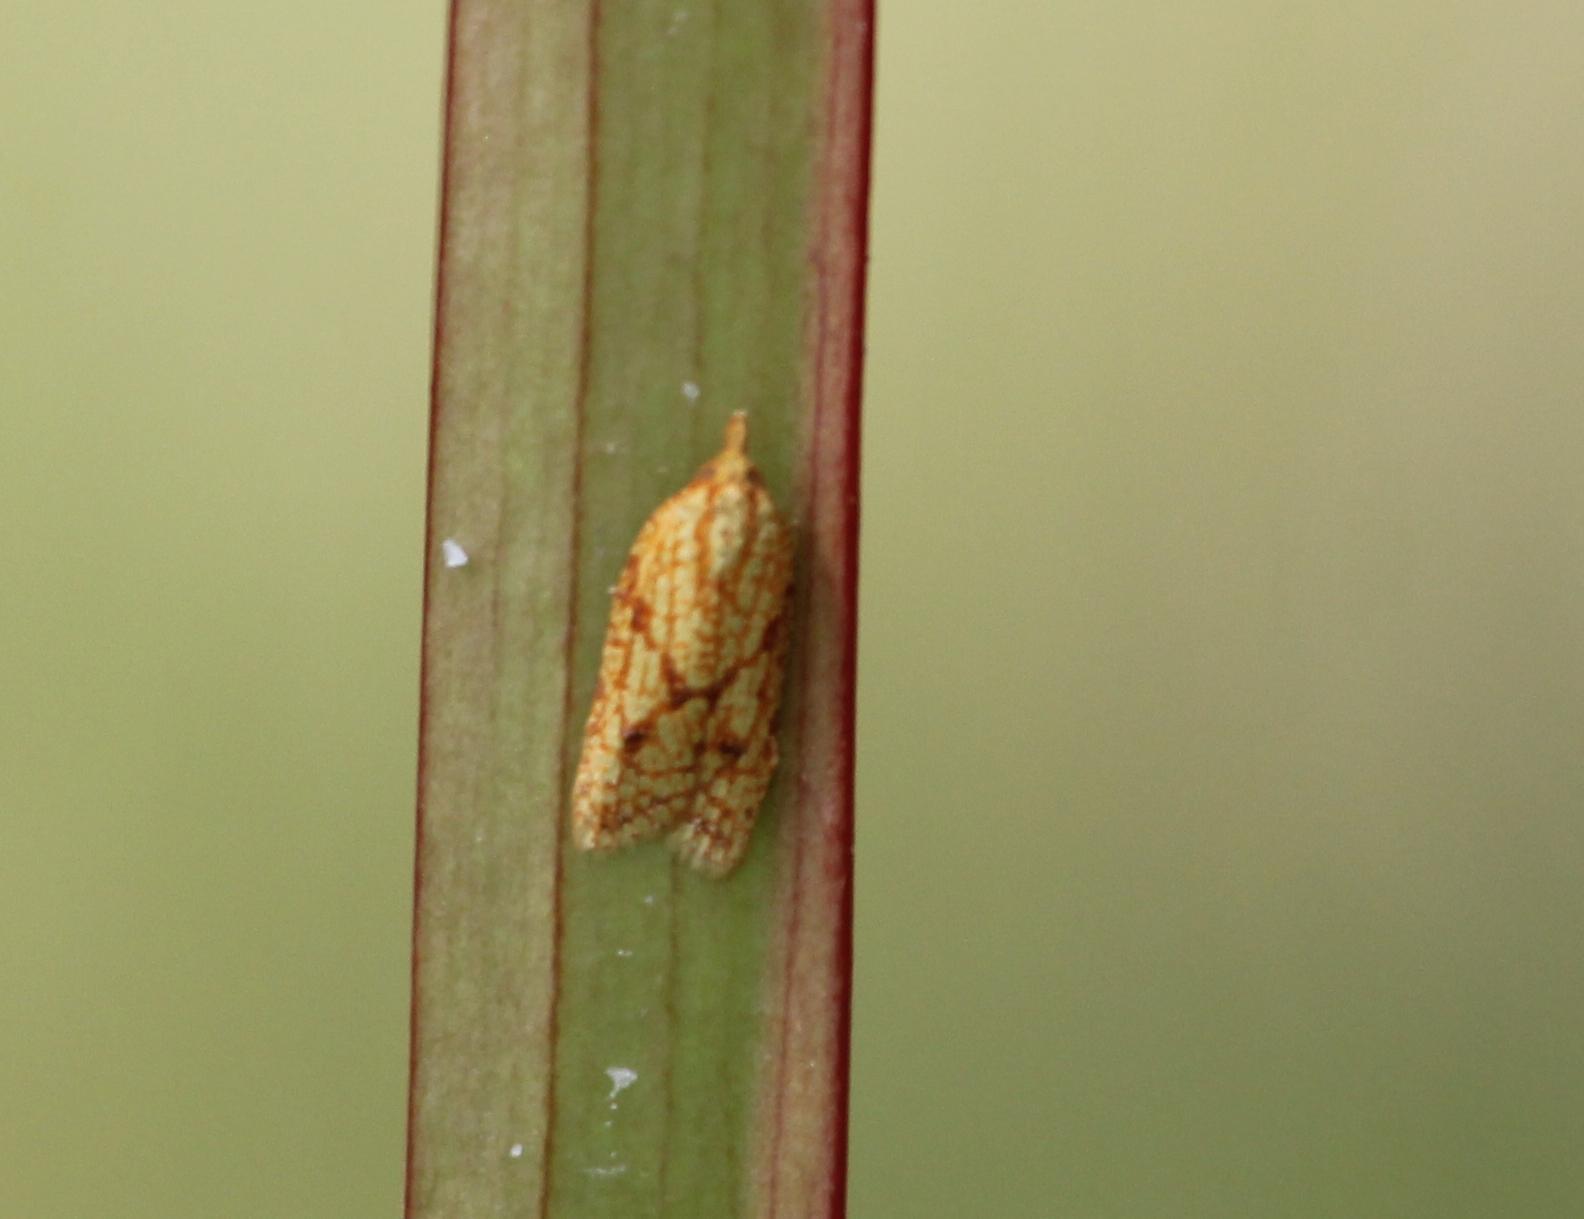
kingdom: Animalia
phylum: Arthropoda
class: Insecta
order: Lepidoptera
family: Tortricidae
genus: Sparganothis
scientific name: Sparganothis sulfureana
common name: Sparganothis fruitworm moth
